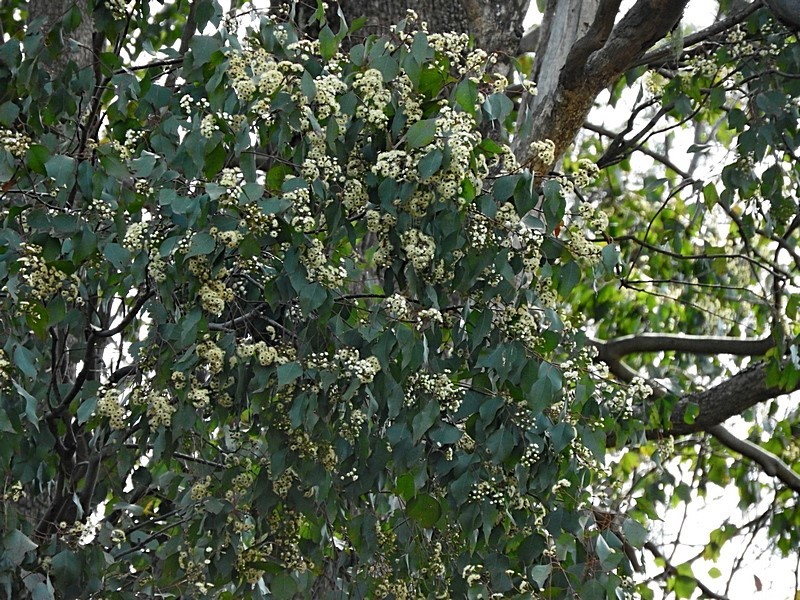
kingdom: Plantae
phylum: Tracheophyta
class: Magnoliopsida
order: Myrtales
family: Myrtaceae
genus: Eucalyptus
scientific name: Eucalyptus baueriana
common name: Round-leaf-box
